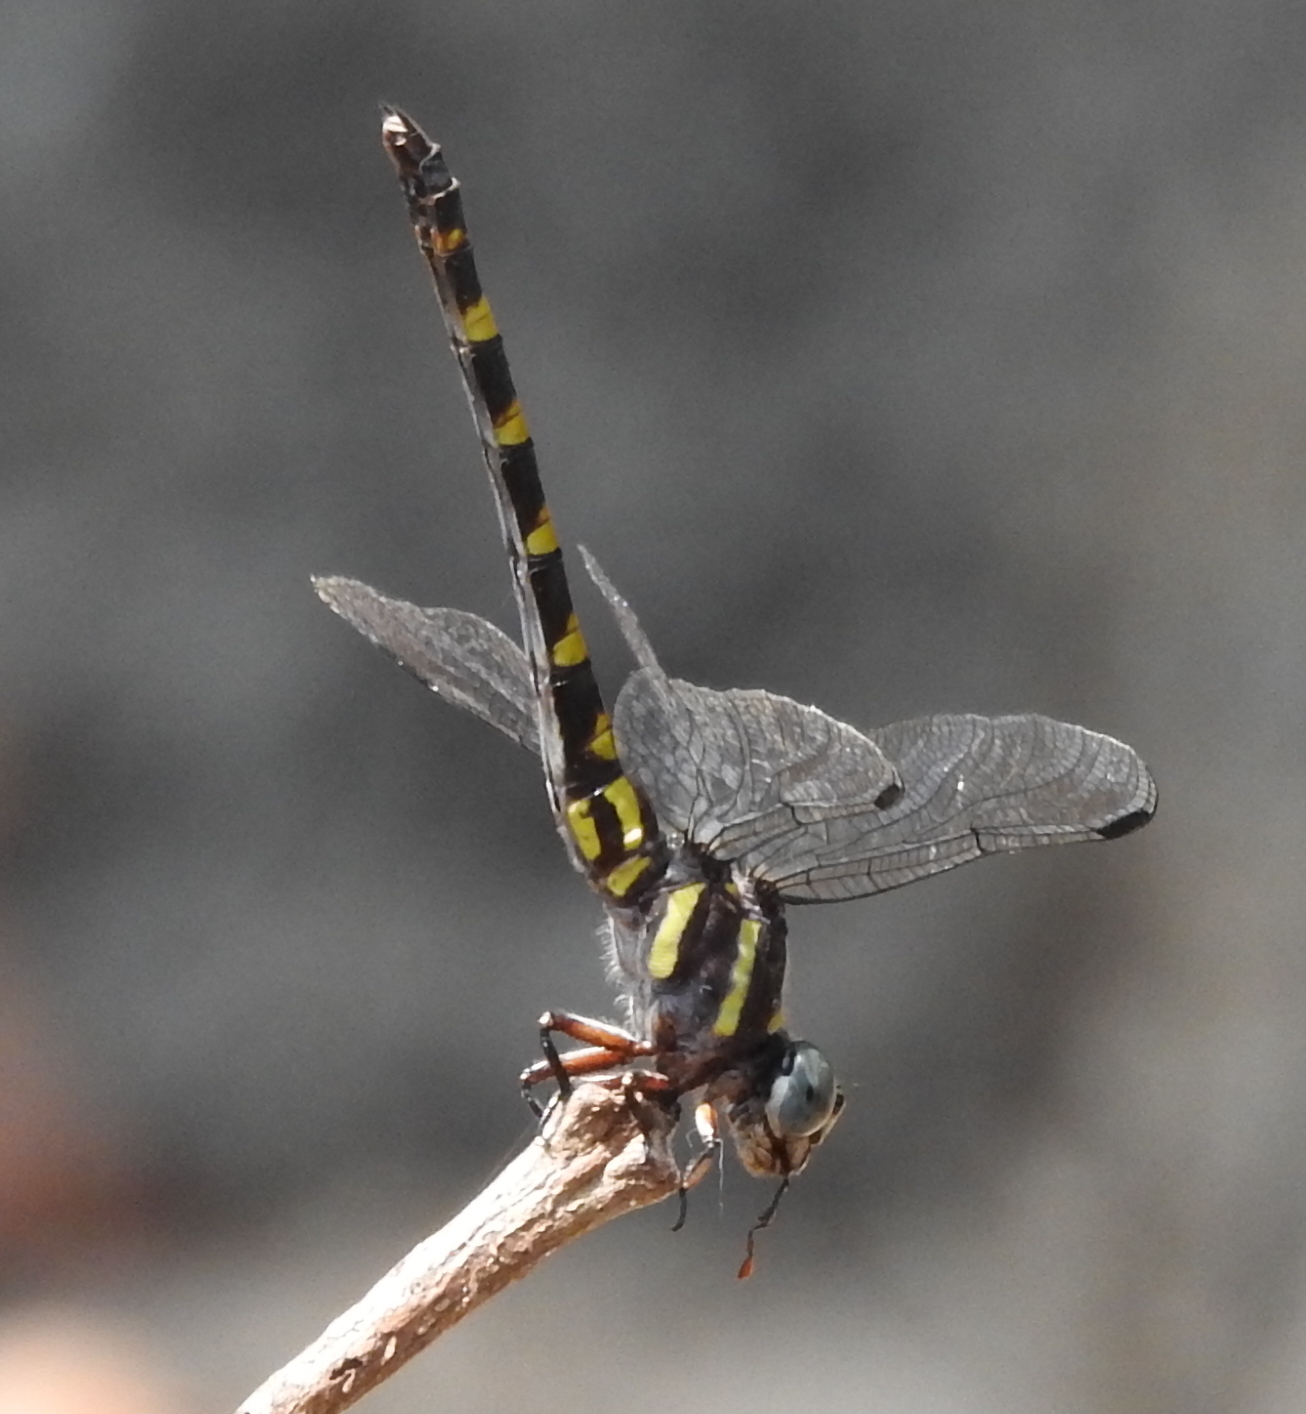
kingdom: Animalia
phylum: Arthropoda
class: Insecta
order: Odonata
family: Gomphidae
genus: Paragomphus
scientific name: Paragomphus capricornis
